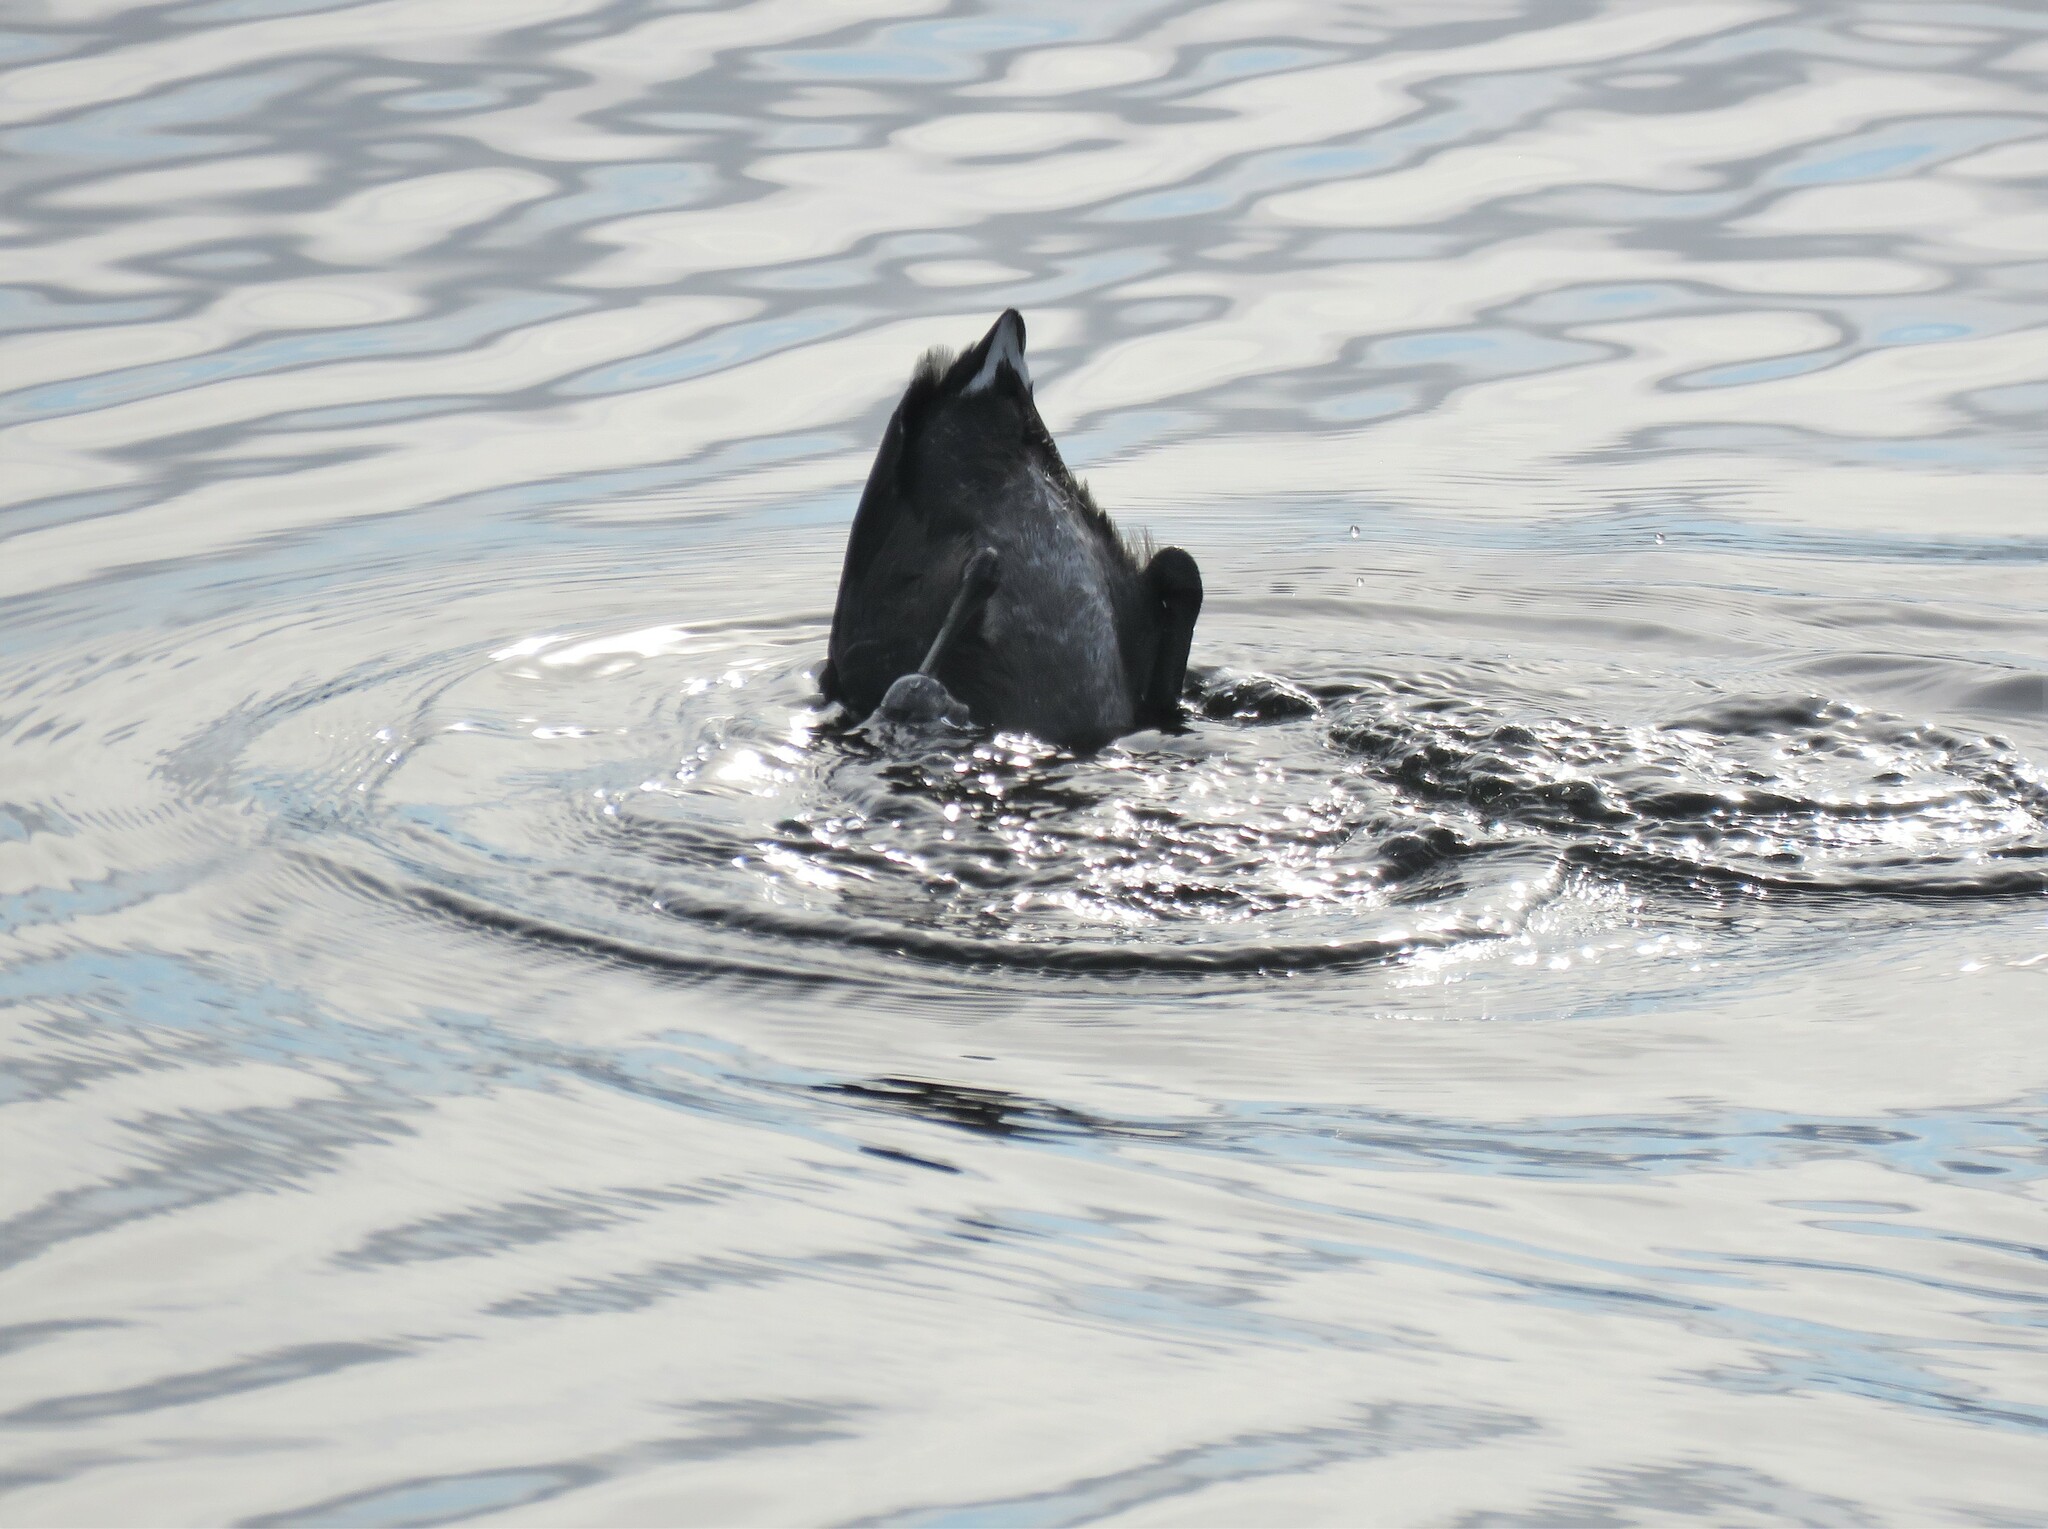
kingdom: Animalia
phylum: Chordata
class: Aves
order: Gruiformes
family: Rallidae
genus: Fulica
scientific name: Fulica americana
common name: American coot
